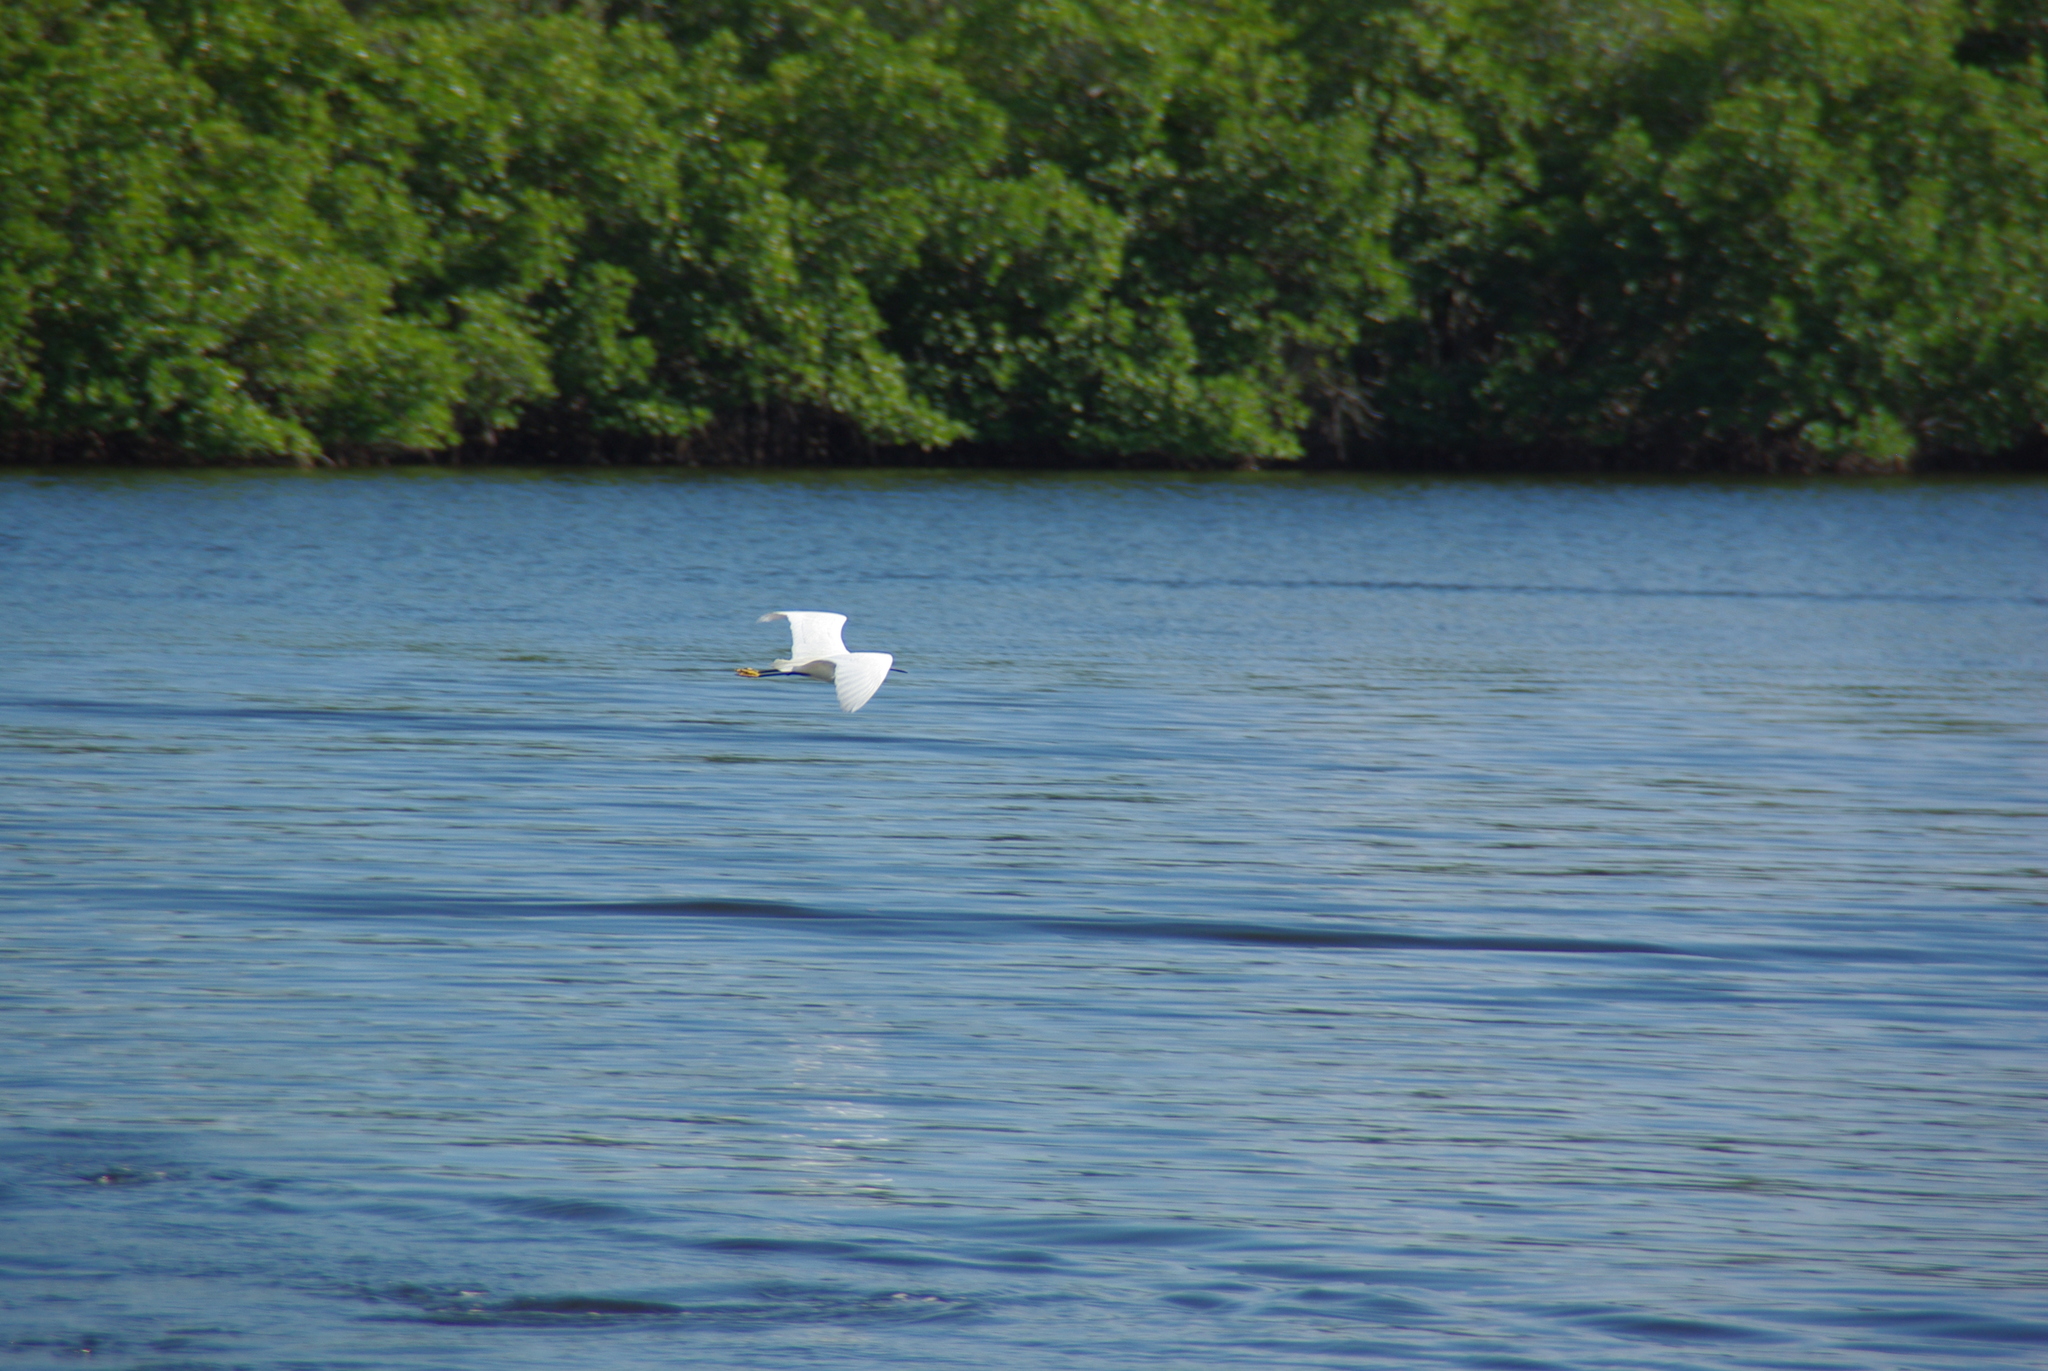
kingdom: Animalia
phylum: Chordata
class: Aves
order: Pelecaniformes
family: Ardeidae
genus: Egretta
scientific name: Egretta thula
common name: Snowy egret
